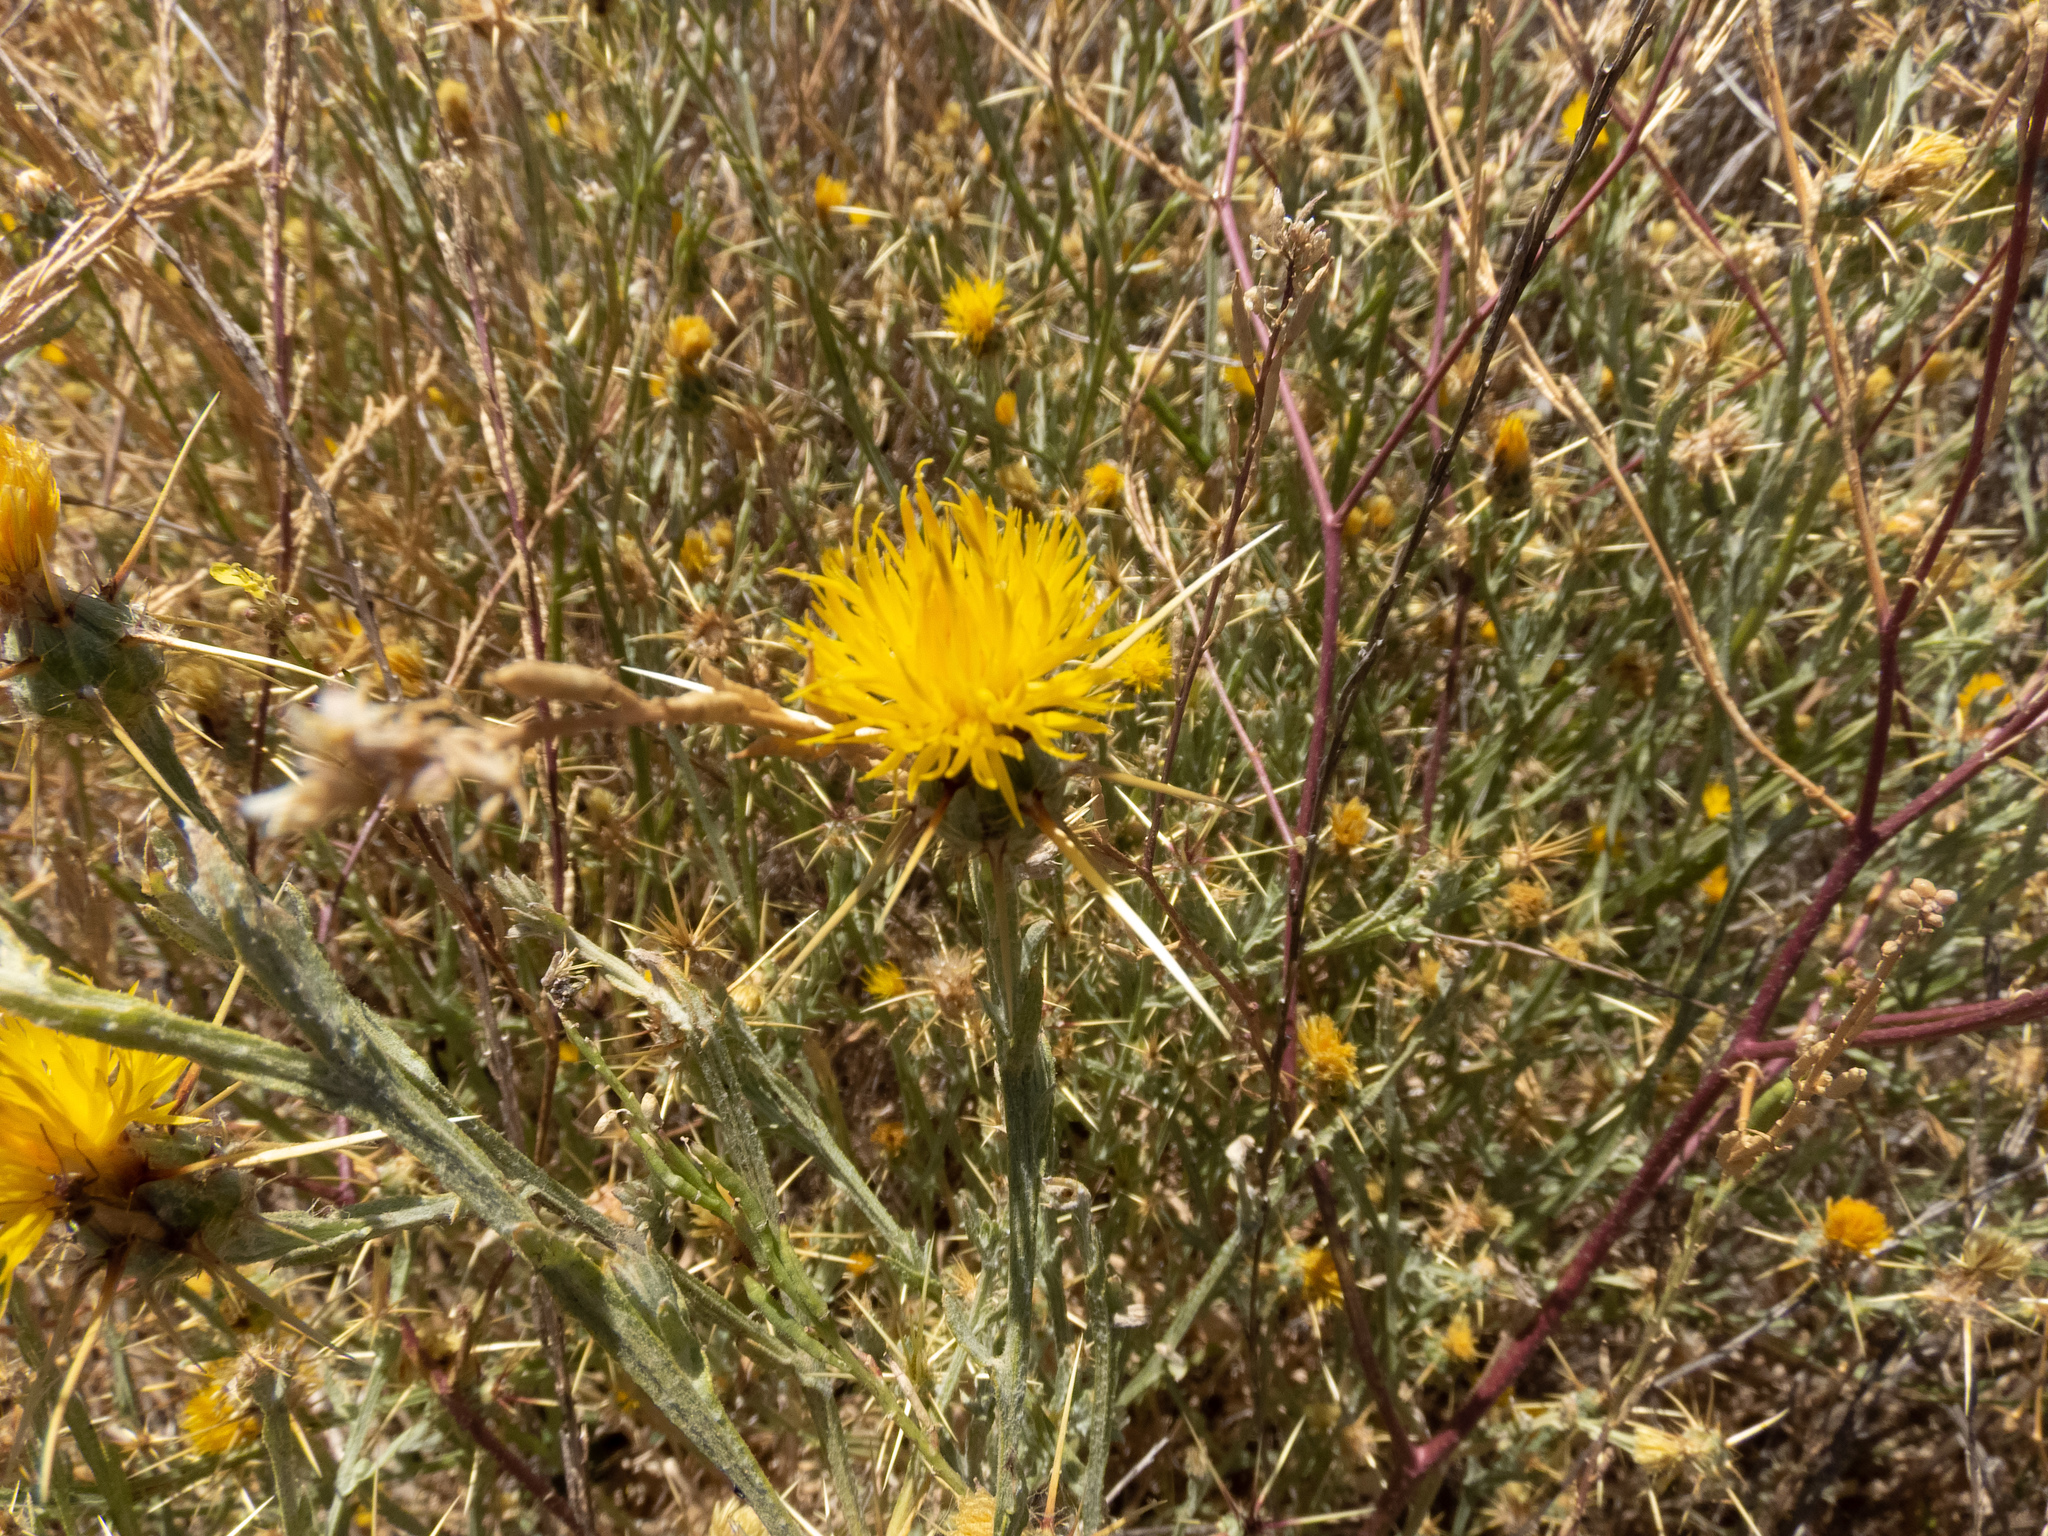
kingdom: Plantae
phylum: Tracheophyta
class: Magnoliopsida
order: Asterales
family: Asteraceae
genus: Centaurea
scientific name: Centaurea solstitialis
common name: Yellow star-thistle
